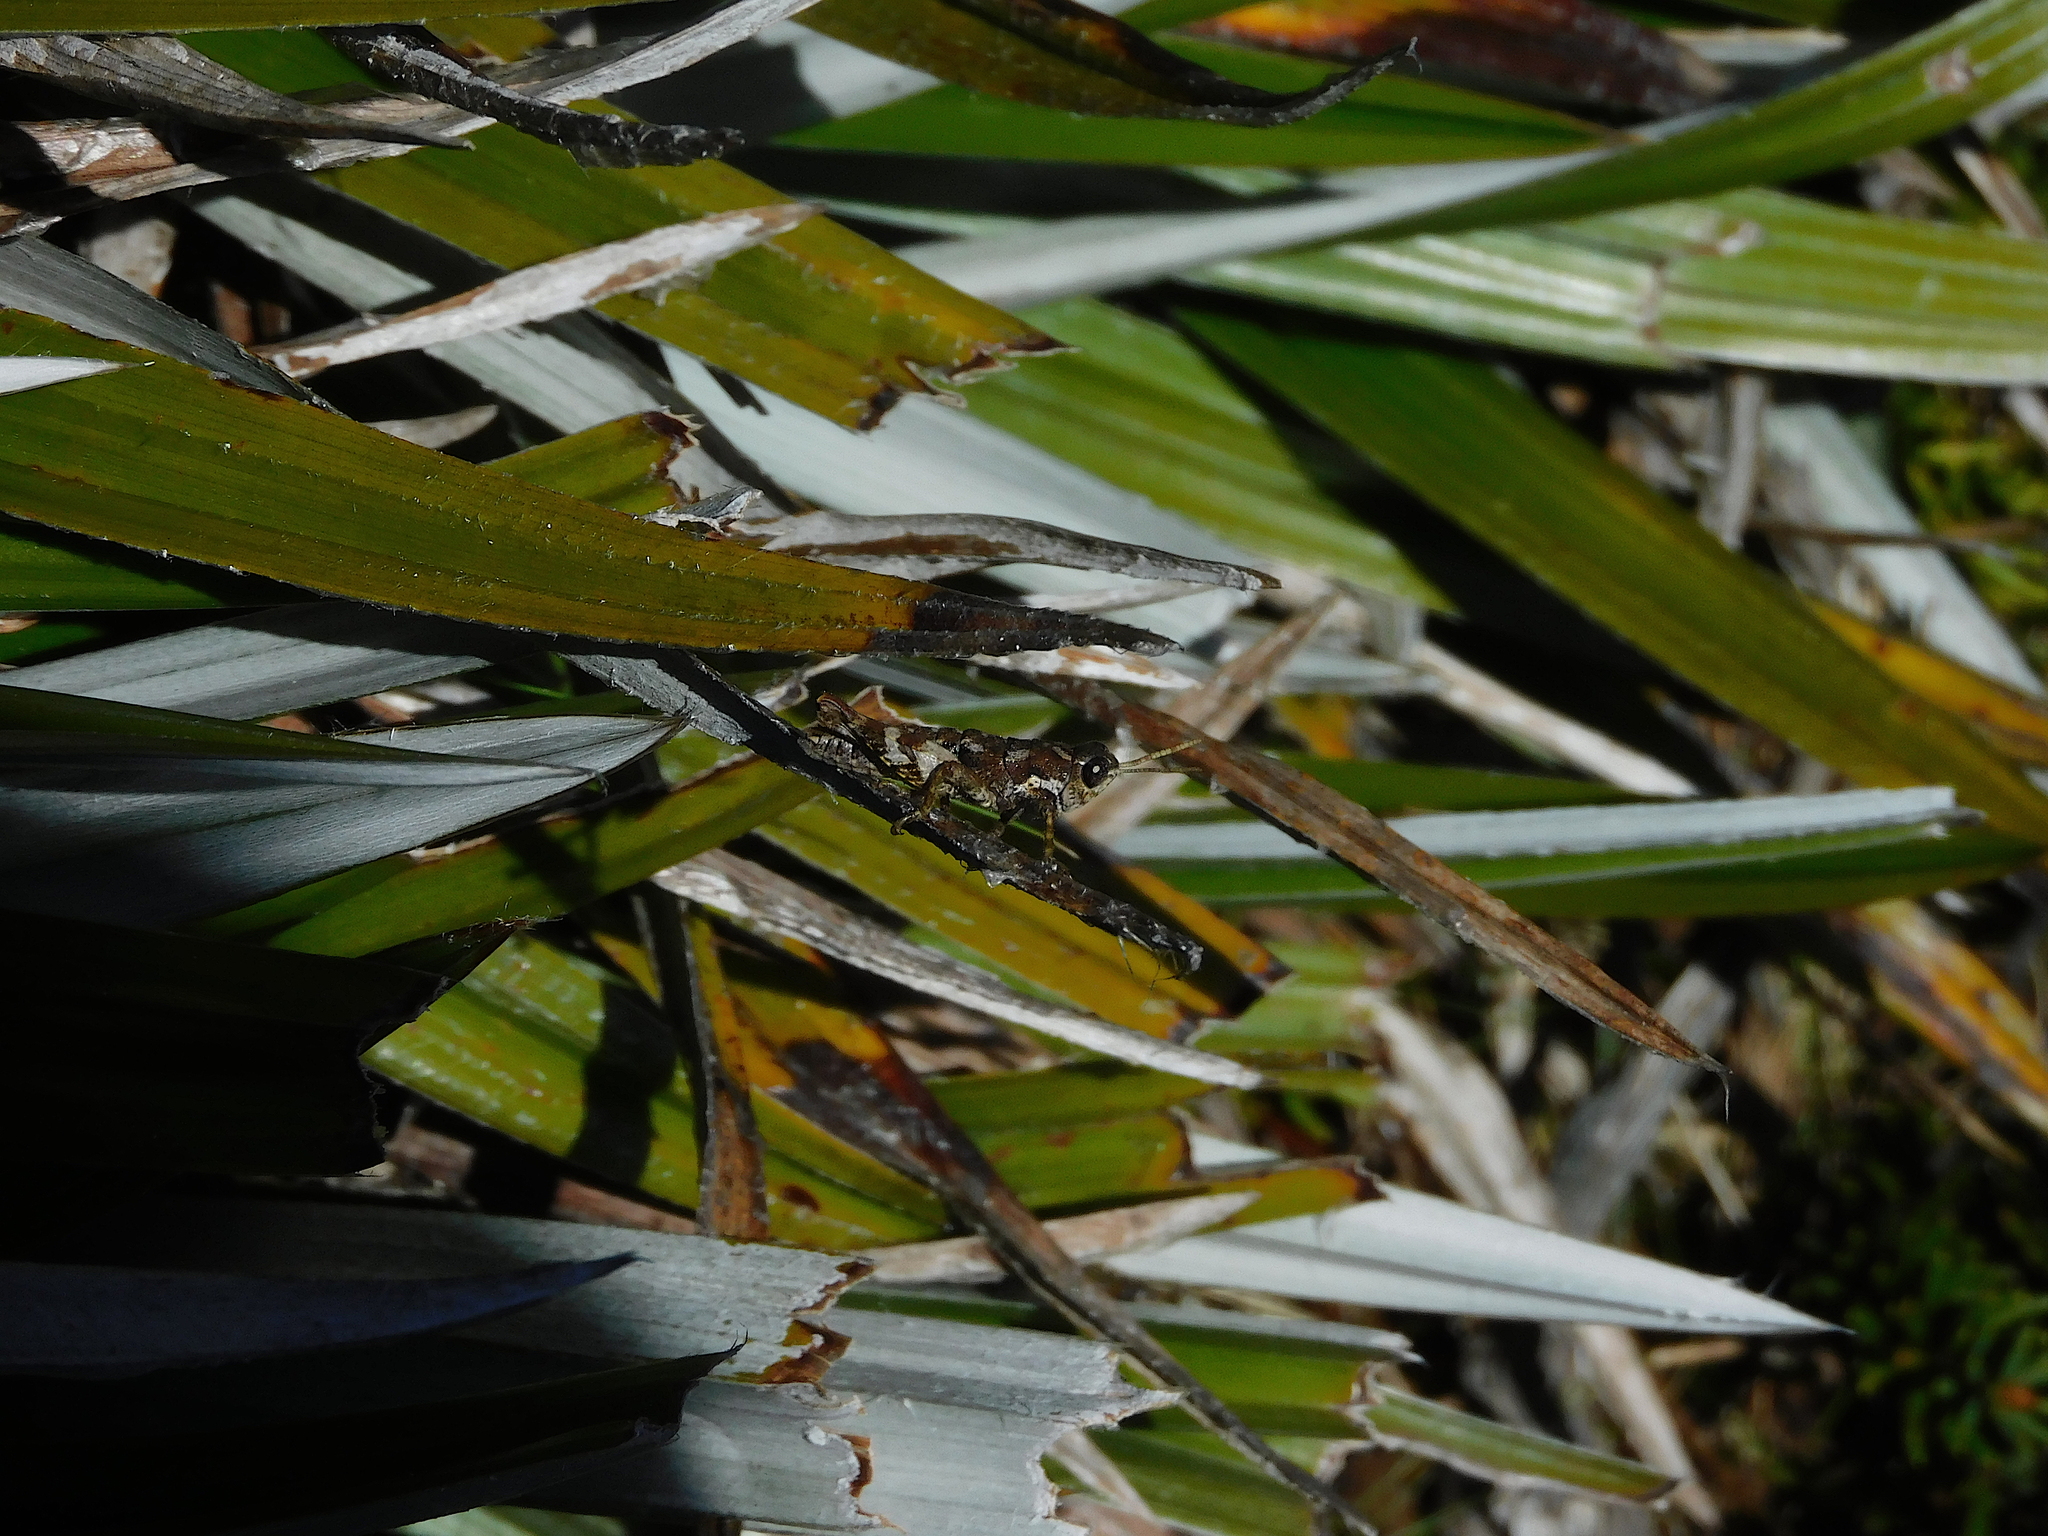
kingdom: Animalia
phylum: Arthropoda
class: Insecta
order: Orthoptera
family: Acrididae
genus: Tasmaniacris
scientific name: Tasmaniacris tasmaniensis
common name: Tasmanian grasshopper
